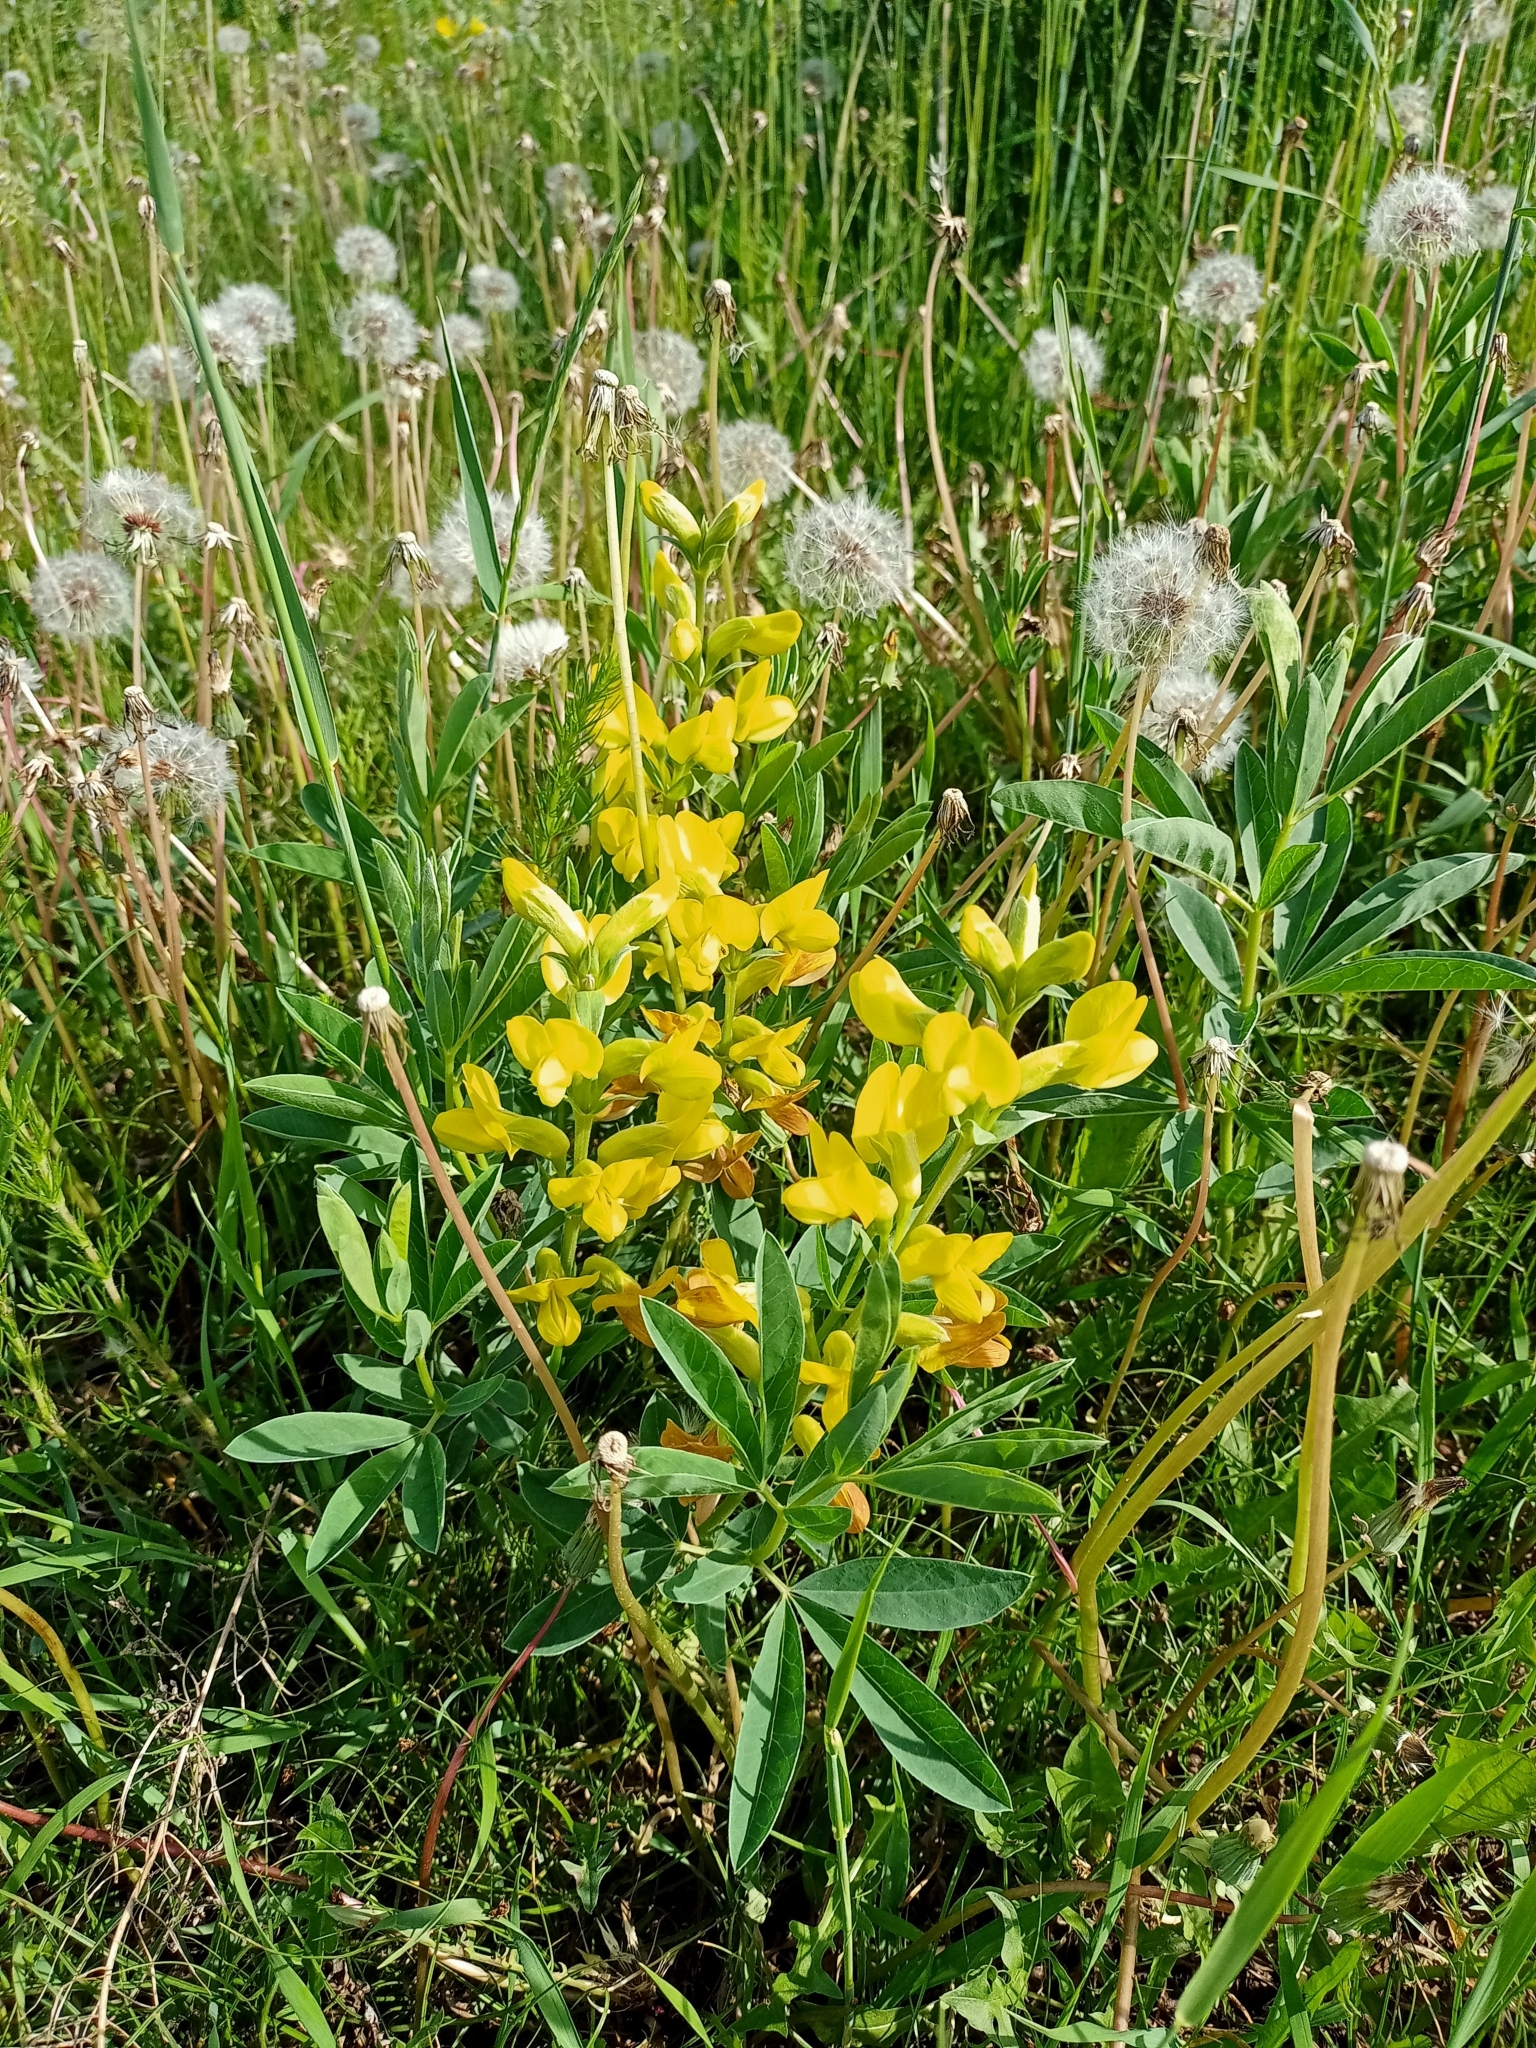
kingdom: Plantae
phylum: Tracheophyta
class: Magnoliopsida
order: Fabales
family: Fabaceae
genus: Thermopsis
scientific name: Thermopsis lanceolata
